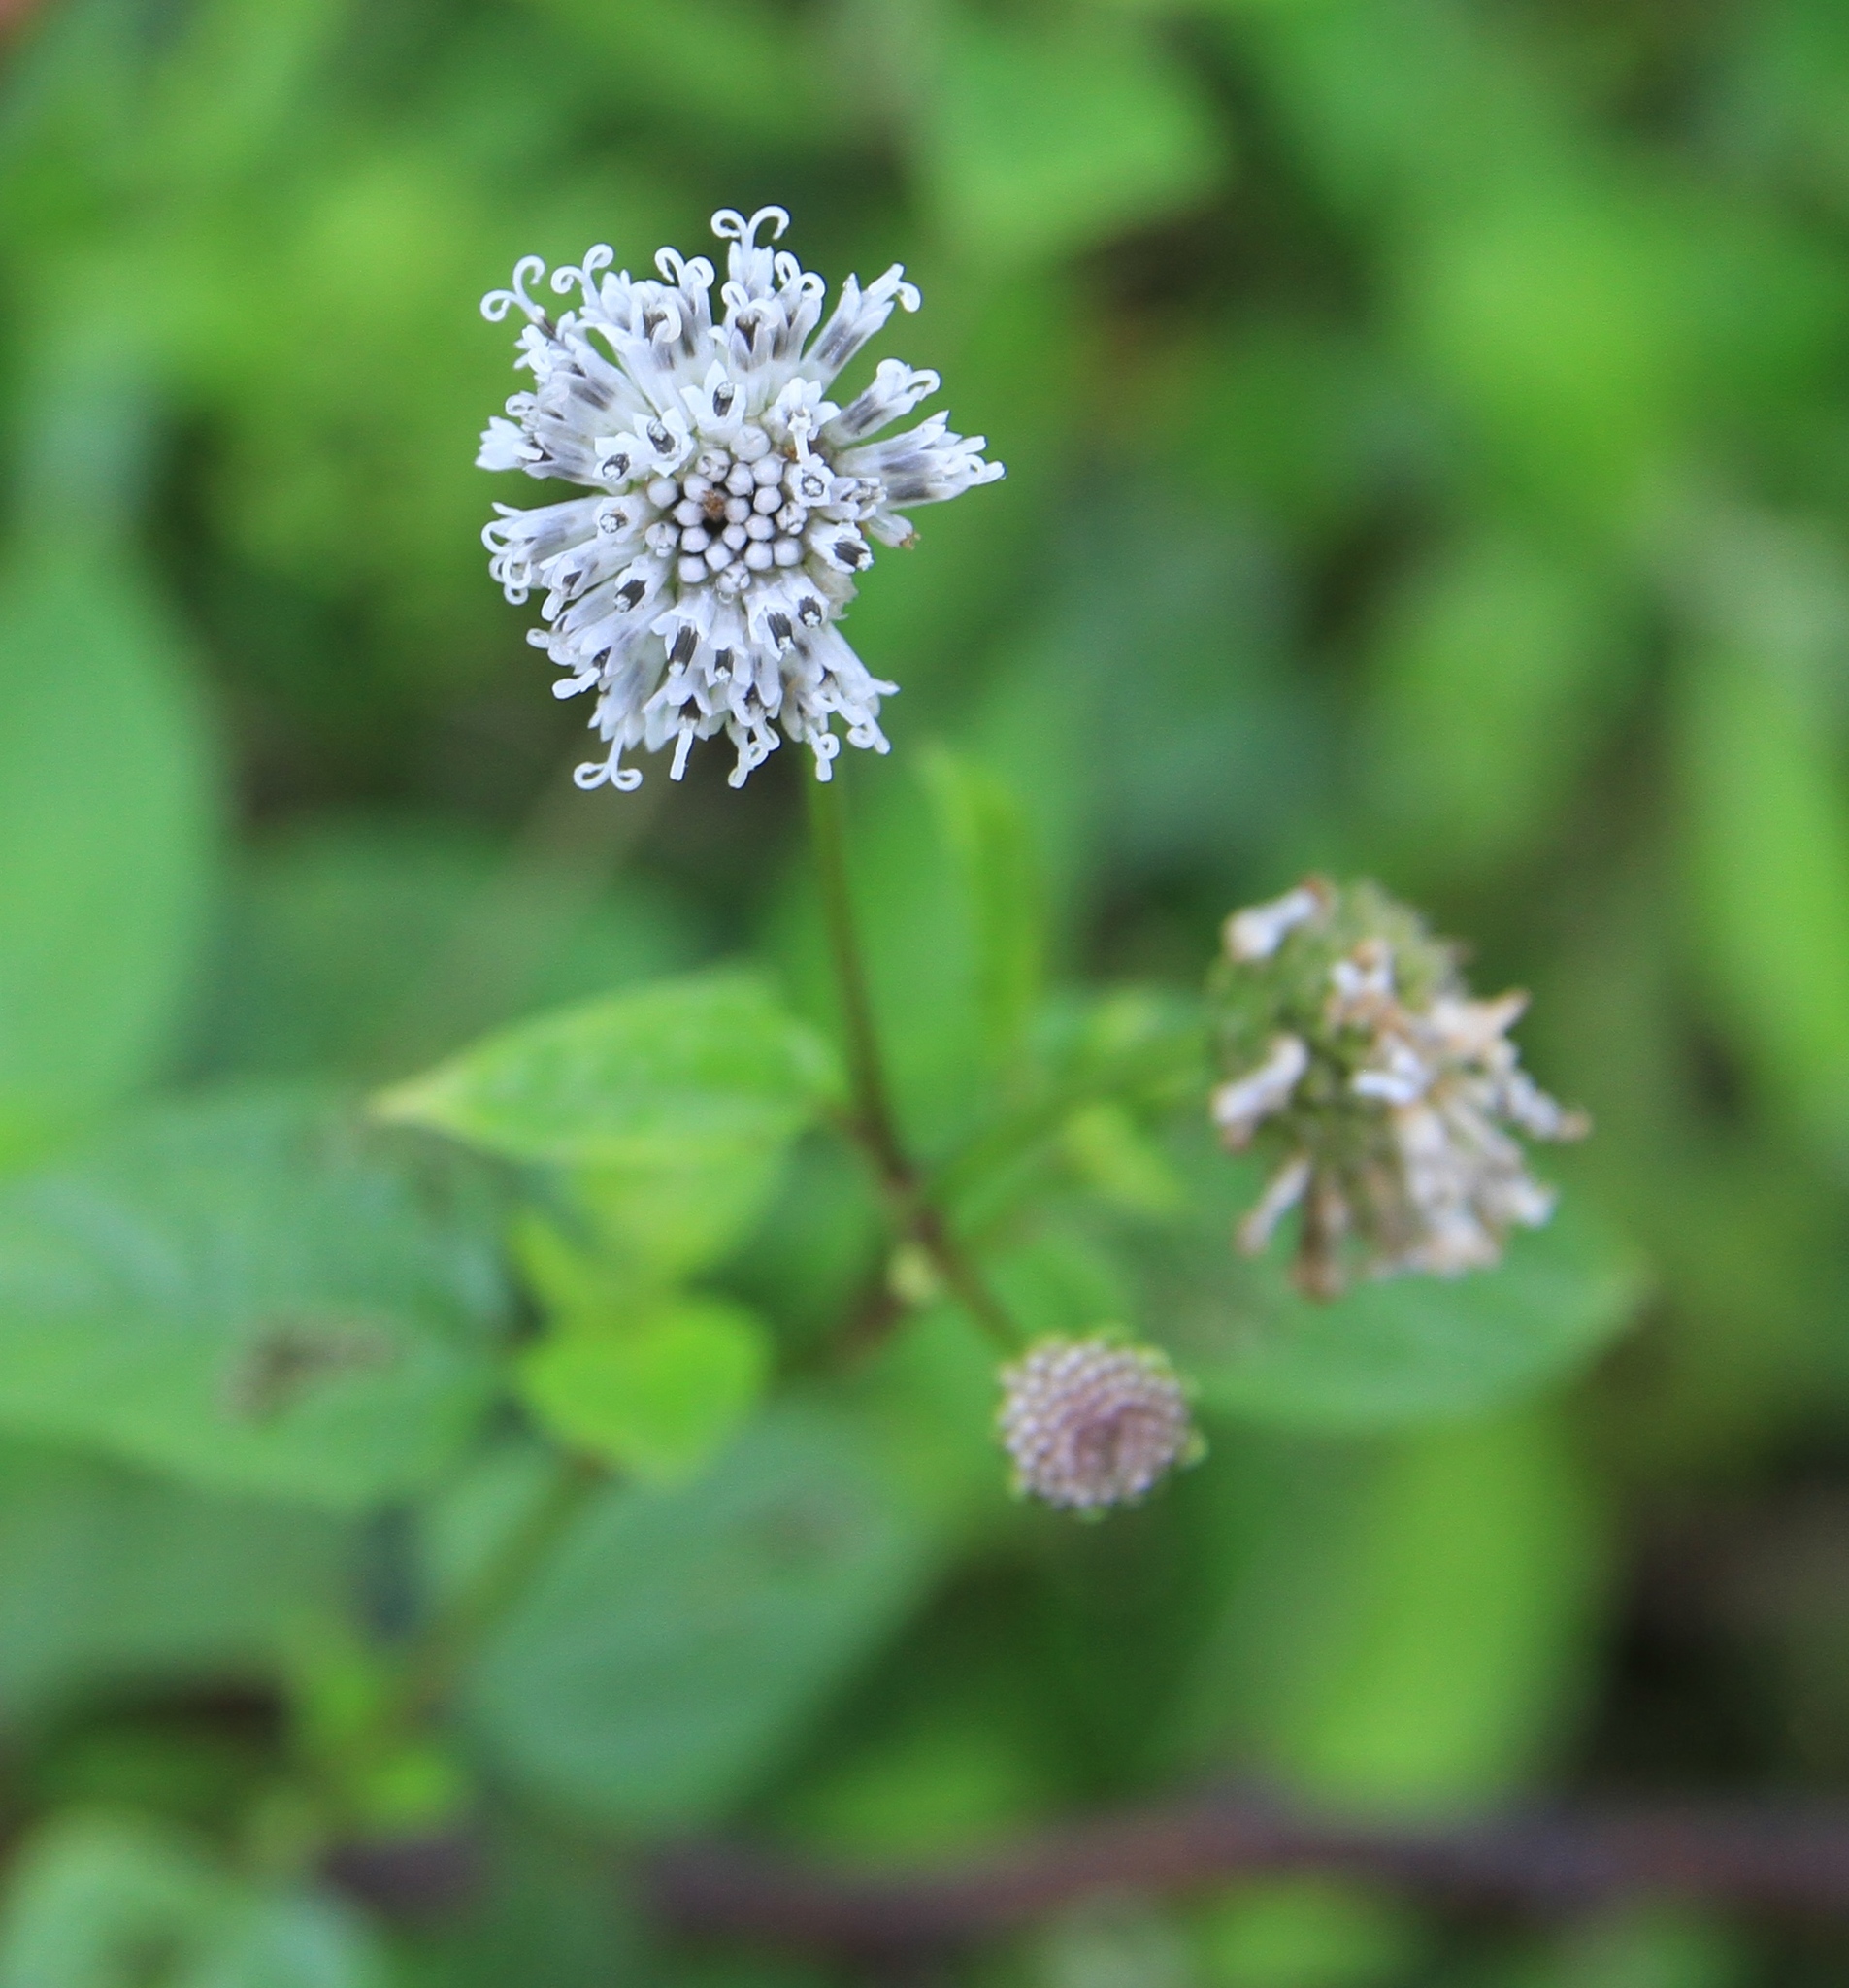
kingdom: Plantae
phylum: Tracheophyta
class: Magnoliopsida
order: Asterales
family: Asteraceae
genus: Melanthera
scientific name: Melanthera nivea
